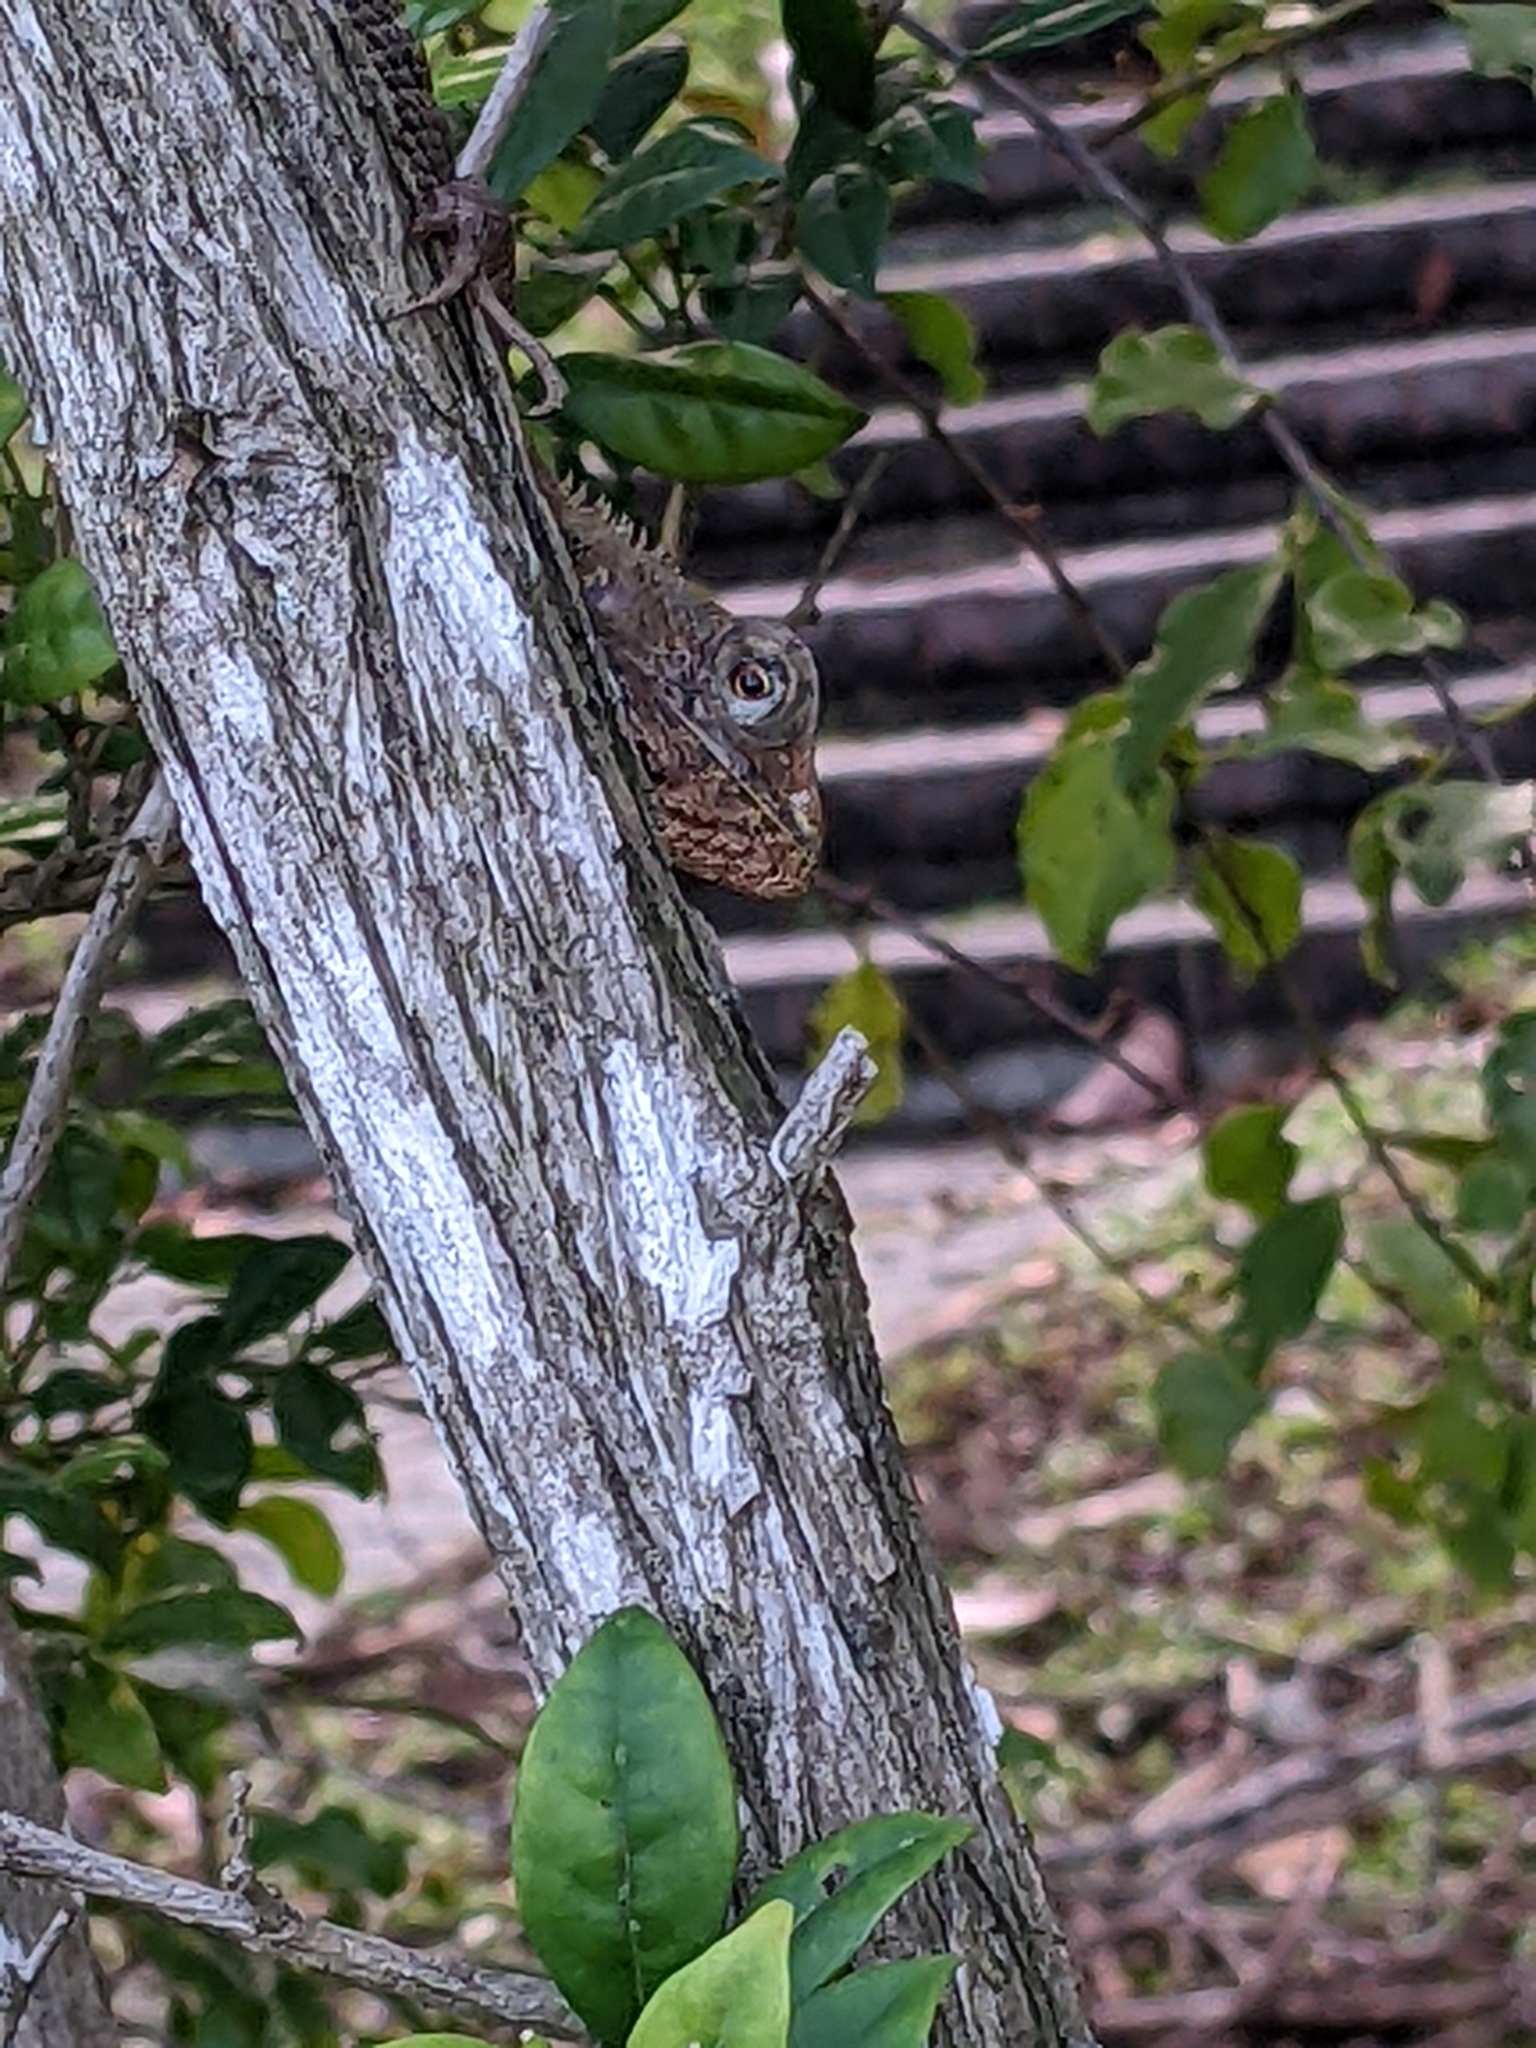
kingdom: Animalia
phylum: Chordata
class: Squamata
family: Agamidae
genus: Calotes
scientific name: Calotes versicolor
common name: Oriental garden lizard
